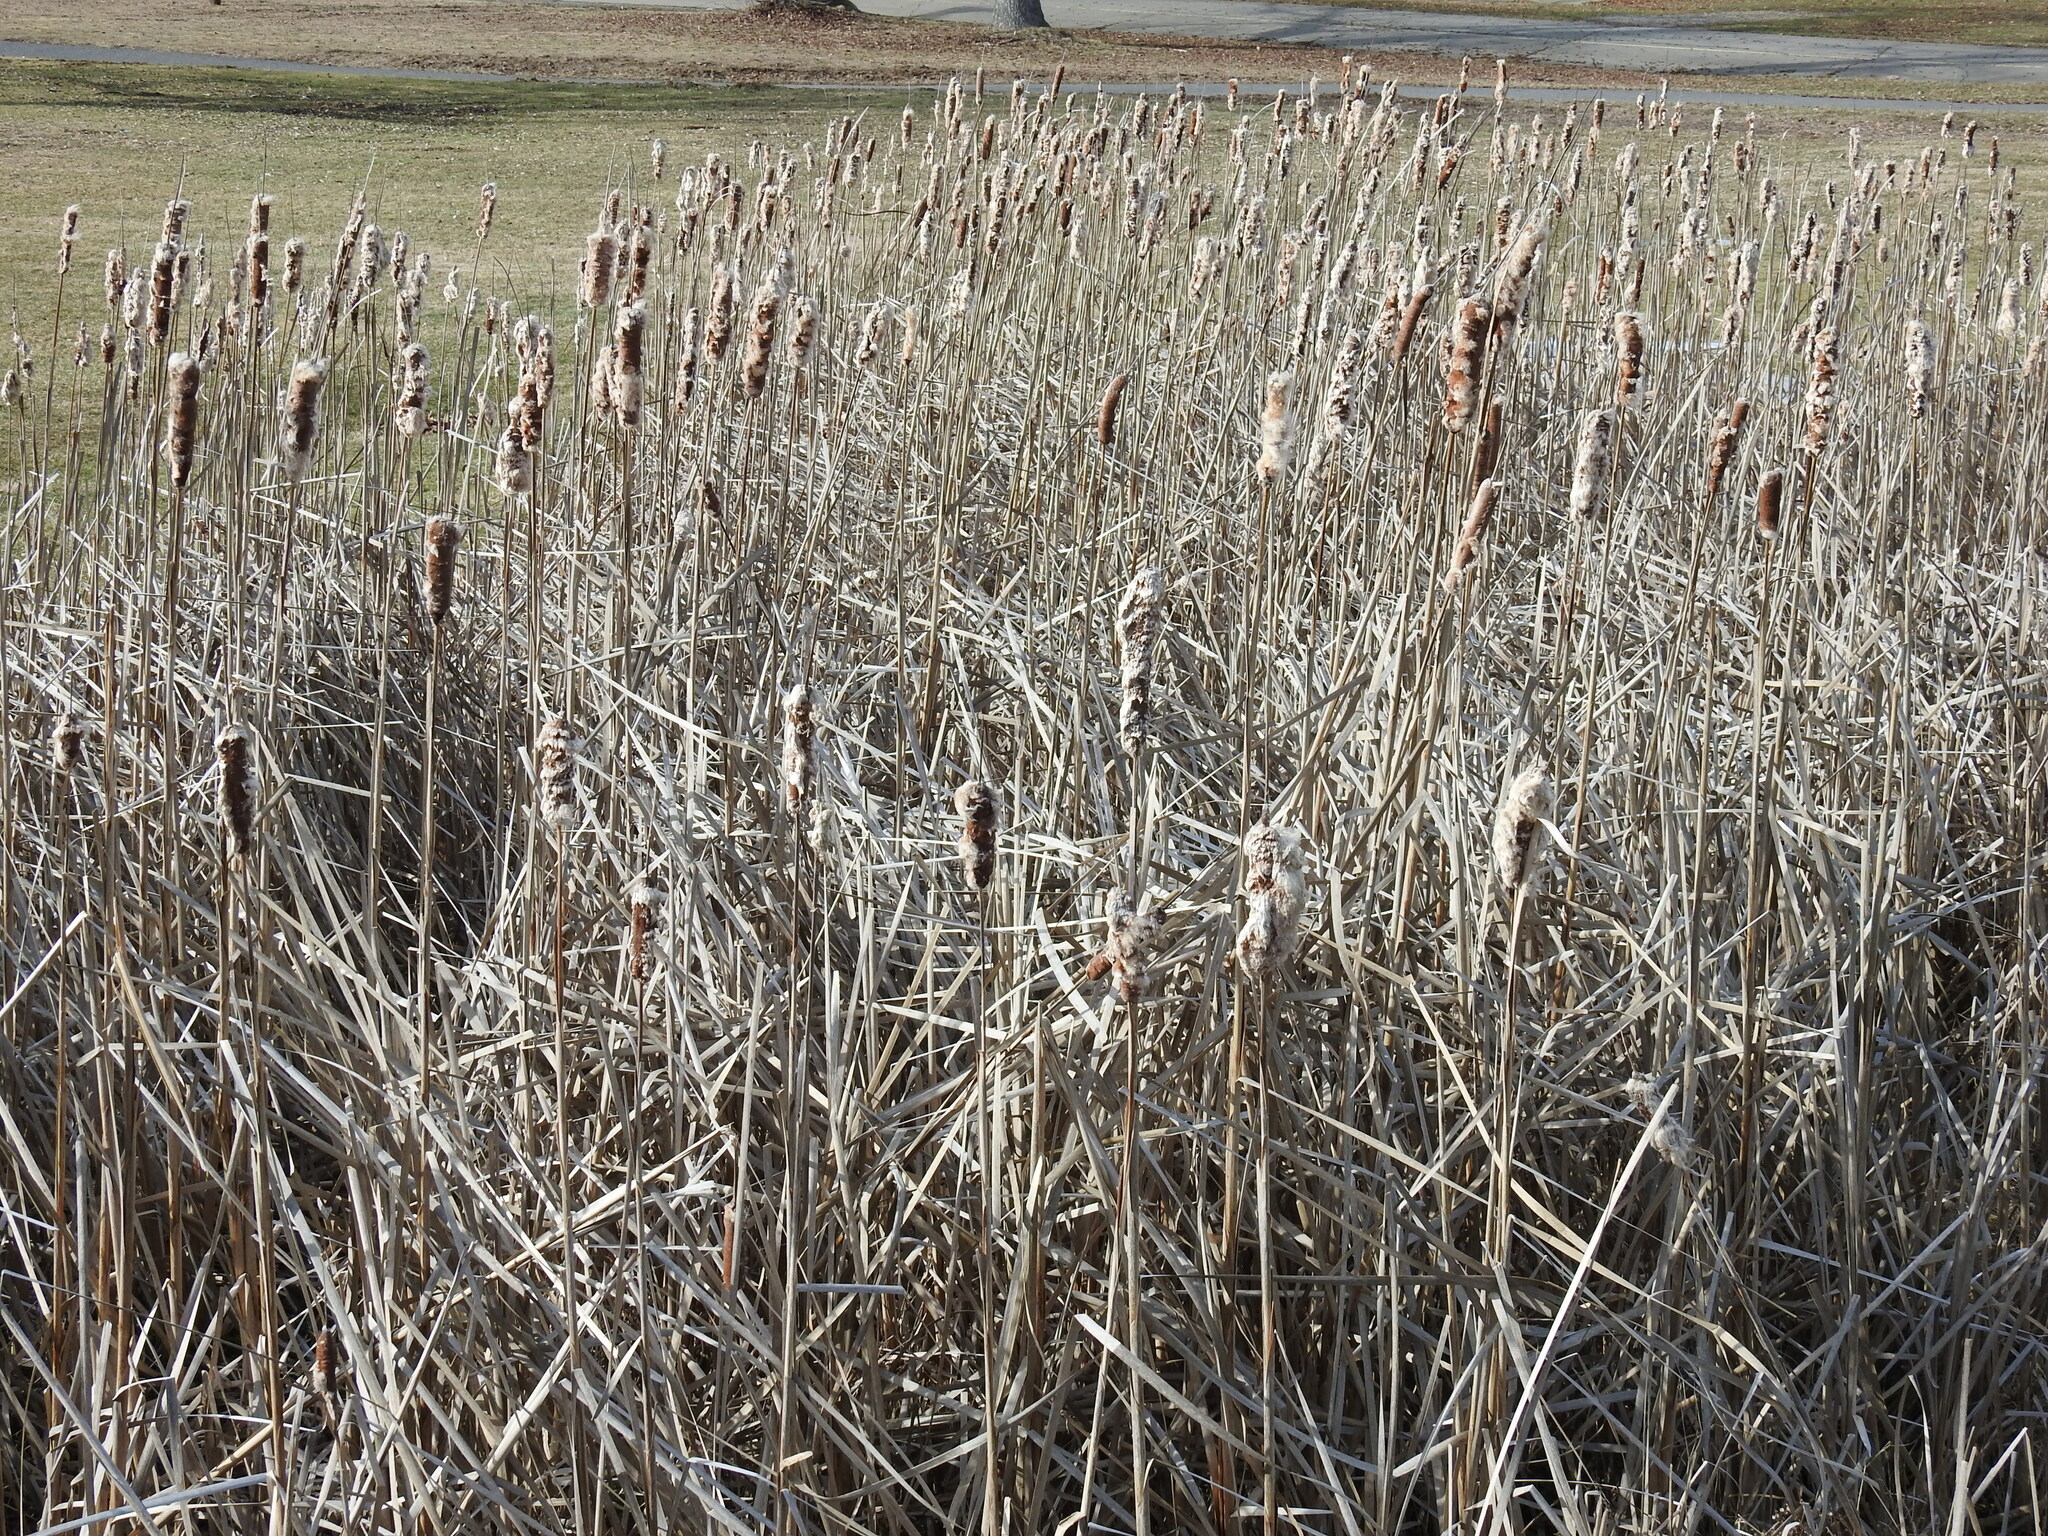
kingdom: Plantae
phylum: Tracheophyta
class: Liliopsida
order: Poales
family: Typhaceae
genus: Typha
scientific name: Typha
